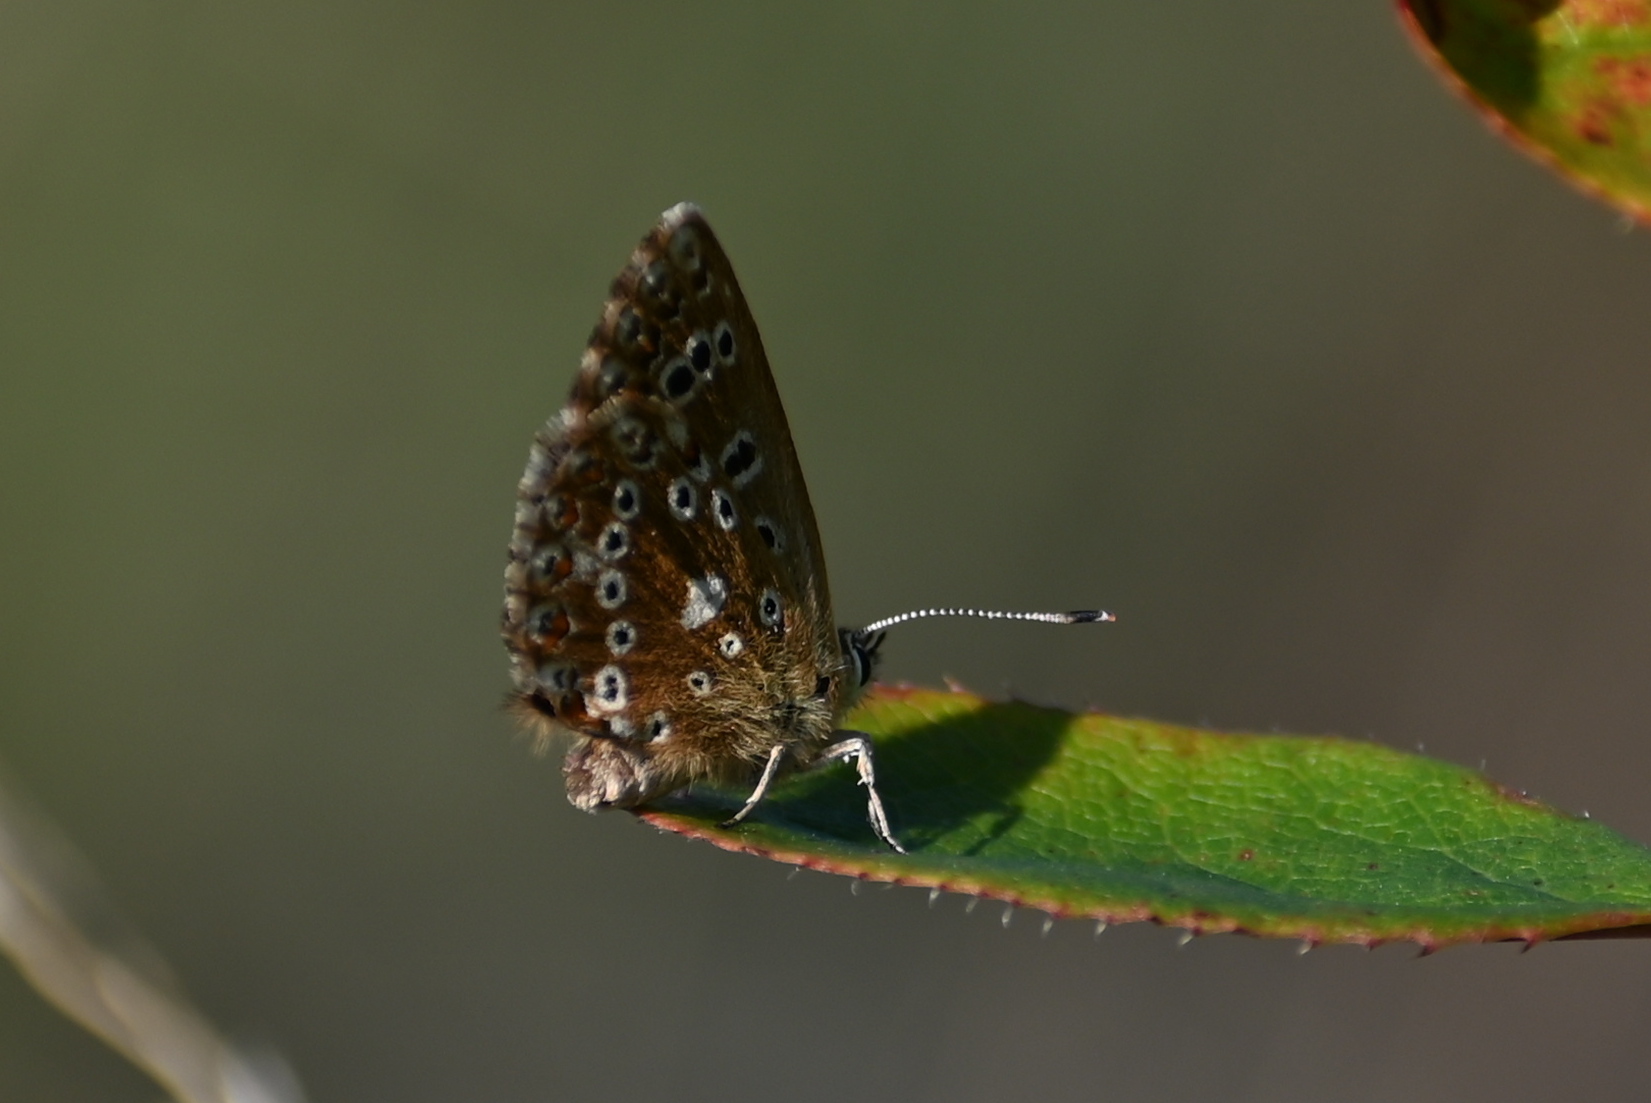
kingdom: Animalia
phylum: Arthropoda
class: Insecta
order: Lepidoptera
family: Lycaenidae
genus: Lysandra
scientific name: Lysandra coridon
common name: Chalkhill blue
